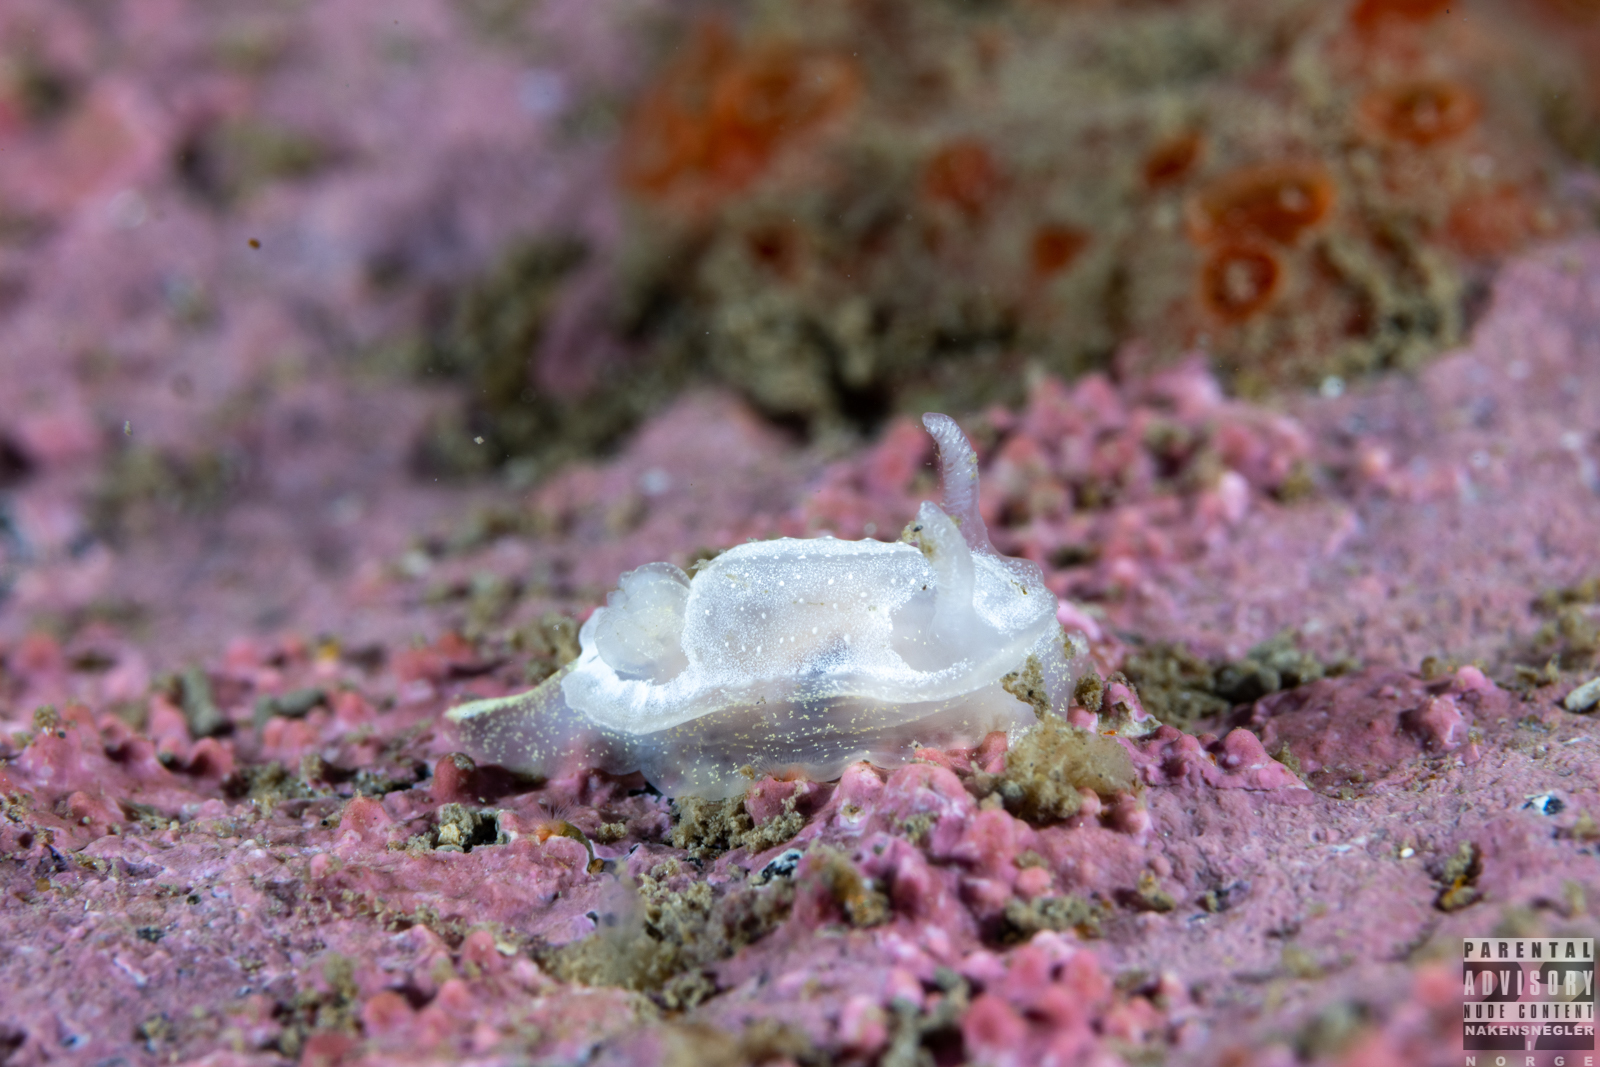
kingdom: Animalia
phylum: Mollusca
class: Gastropoda
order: Nudibranchia
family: Goniodorididae
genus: Okenia
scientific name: Okenia
